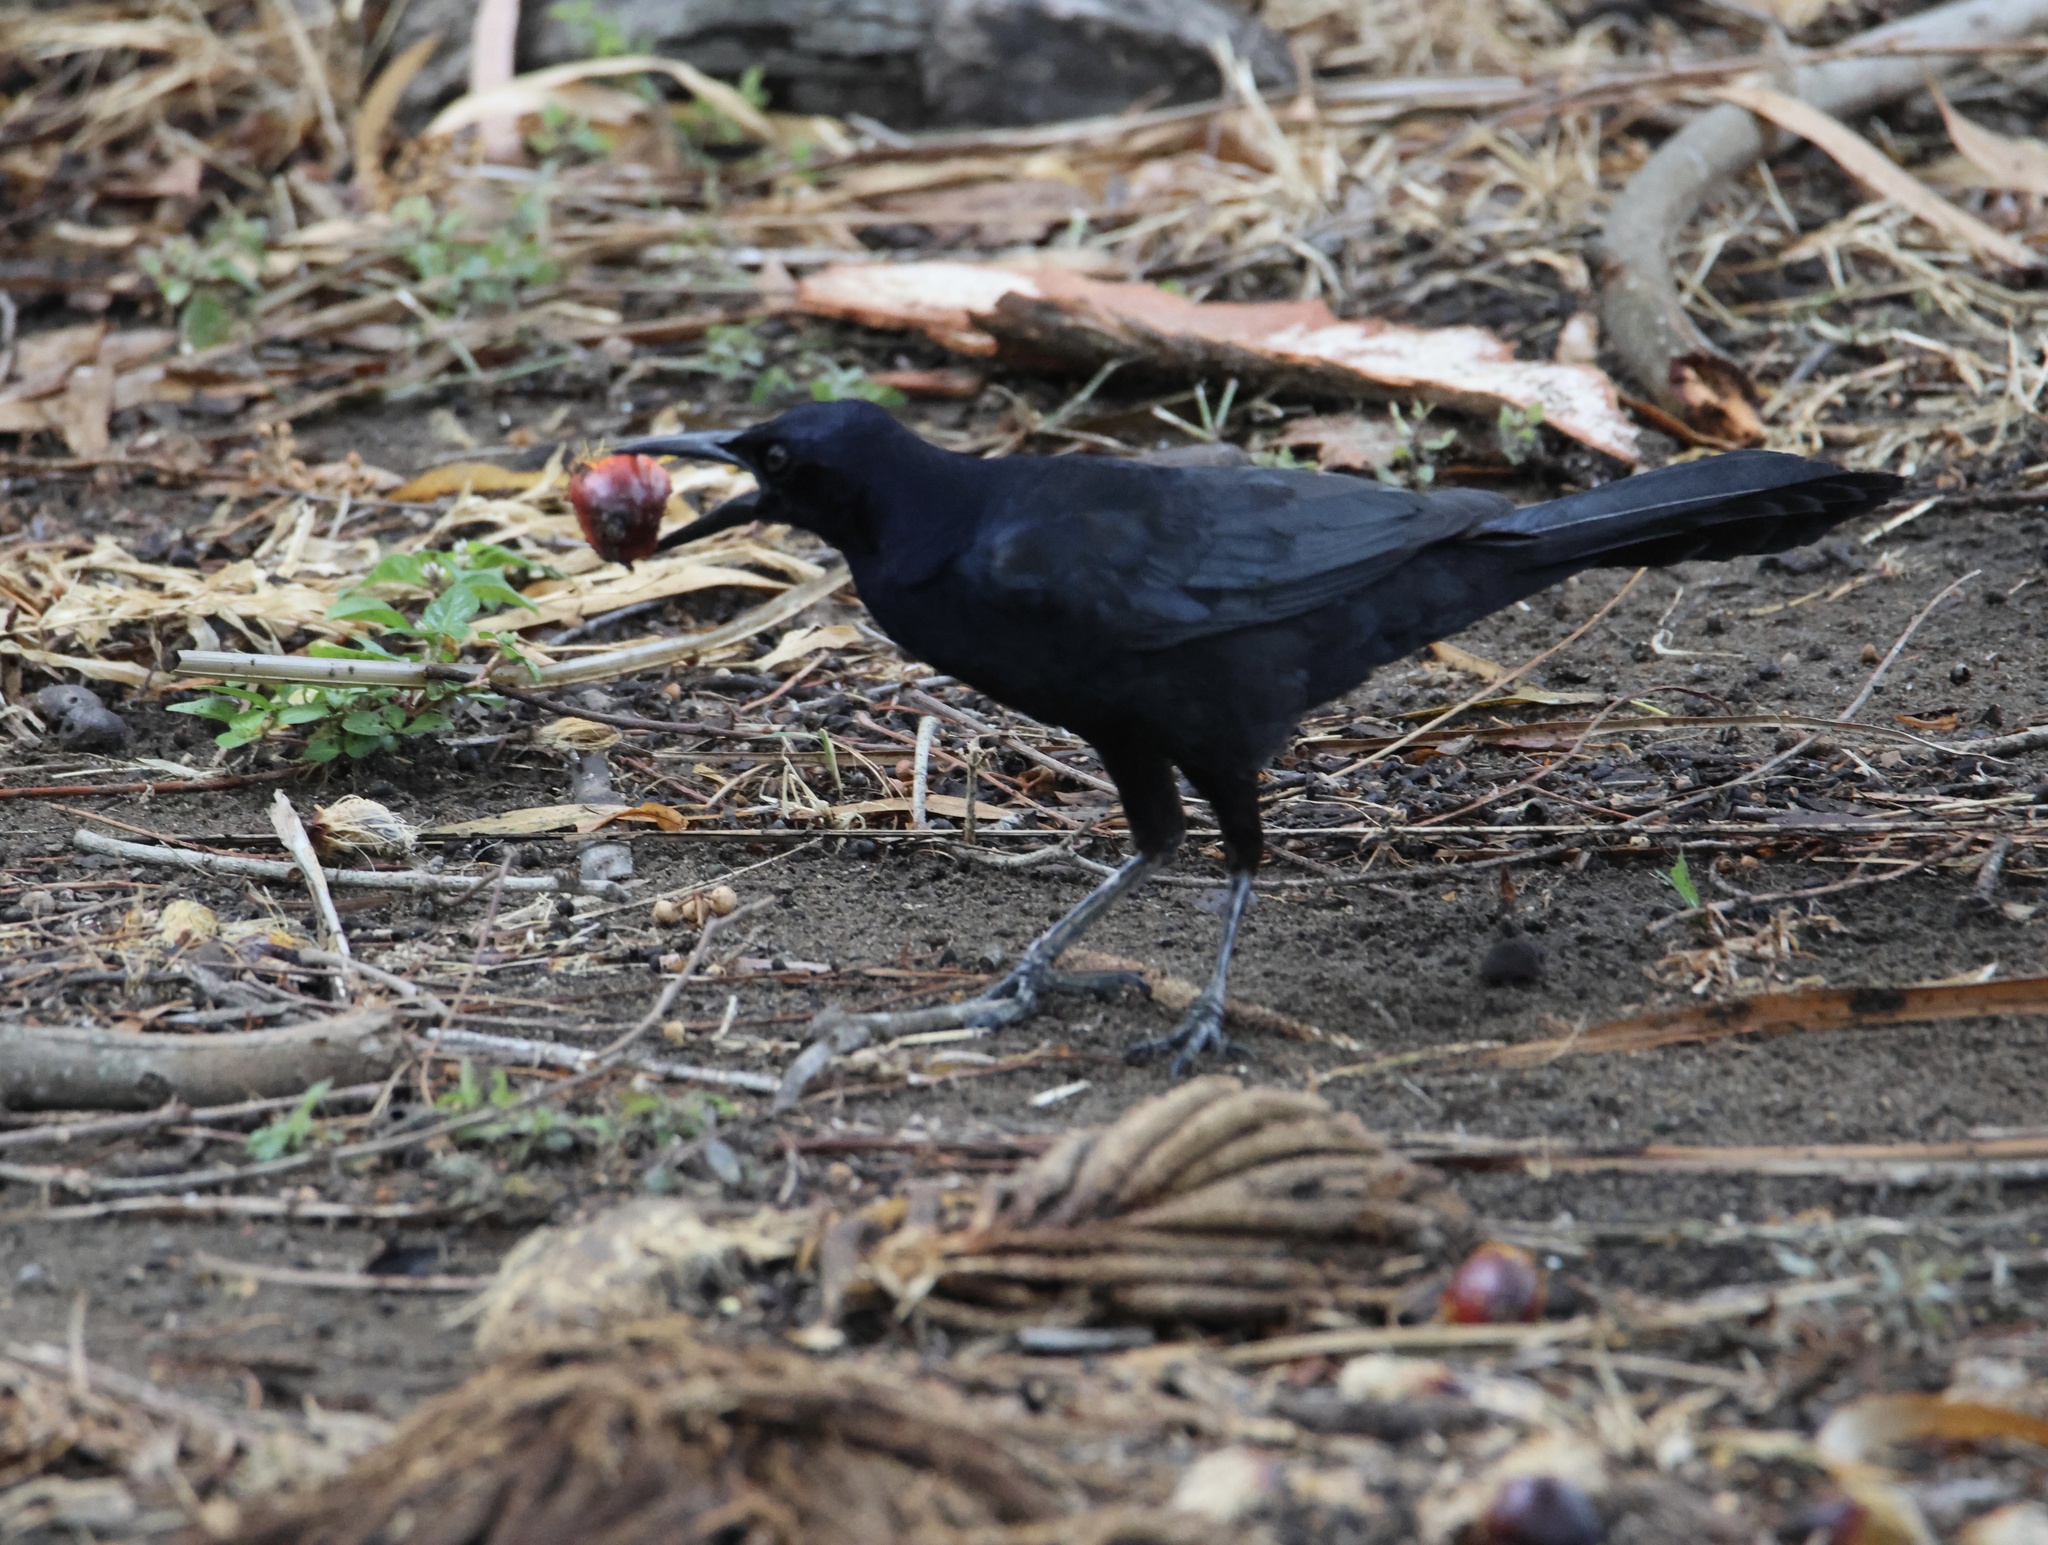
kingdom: Animalia
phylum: Chordata
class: Aves
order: Passeriformes
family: Icteridae
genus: Quiscalus
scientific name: Quiscalus mexicanus
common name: Great-tailed grackle
